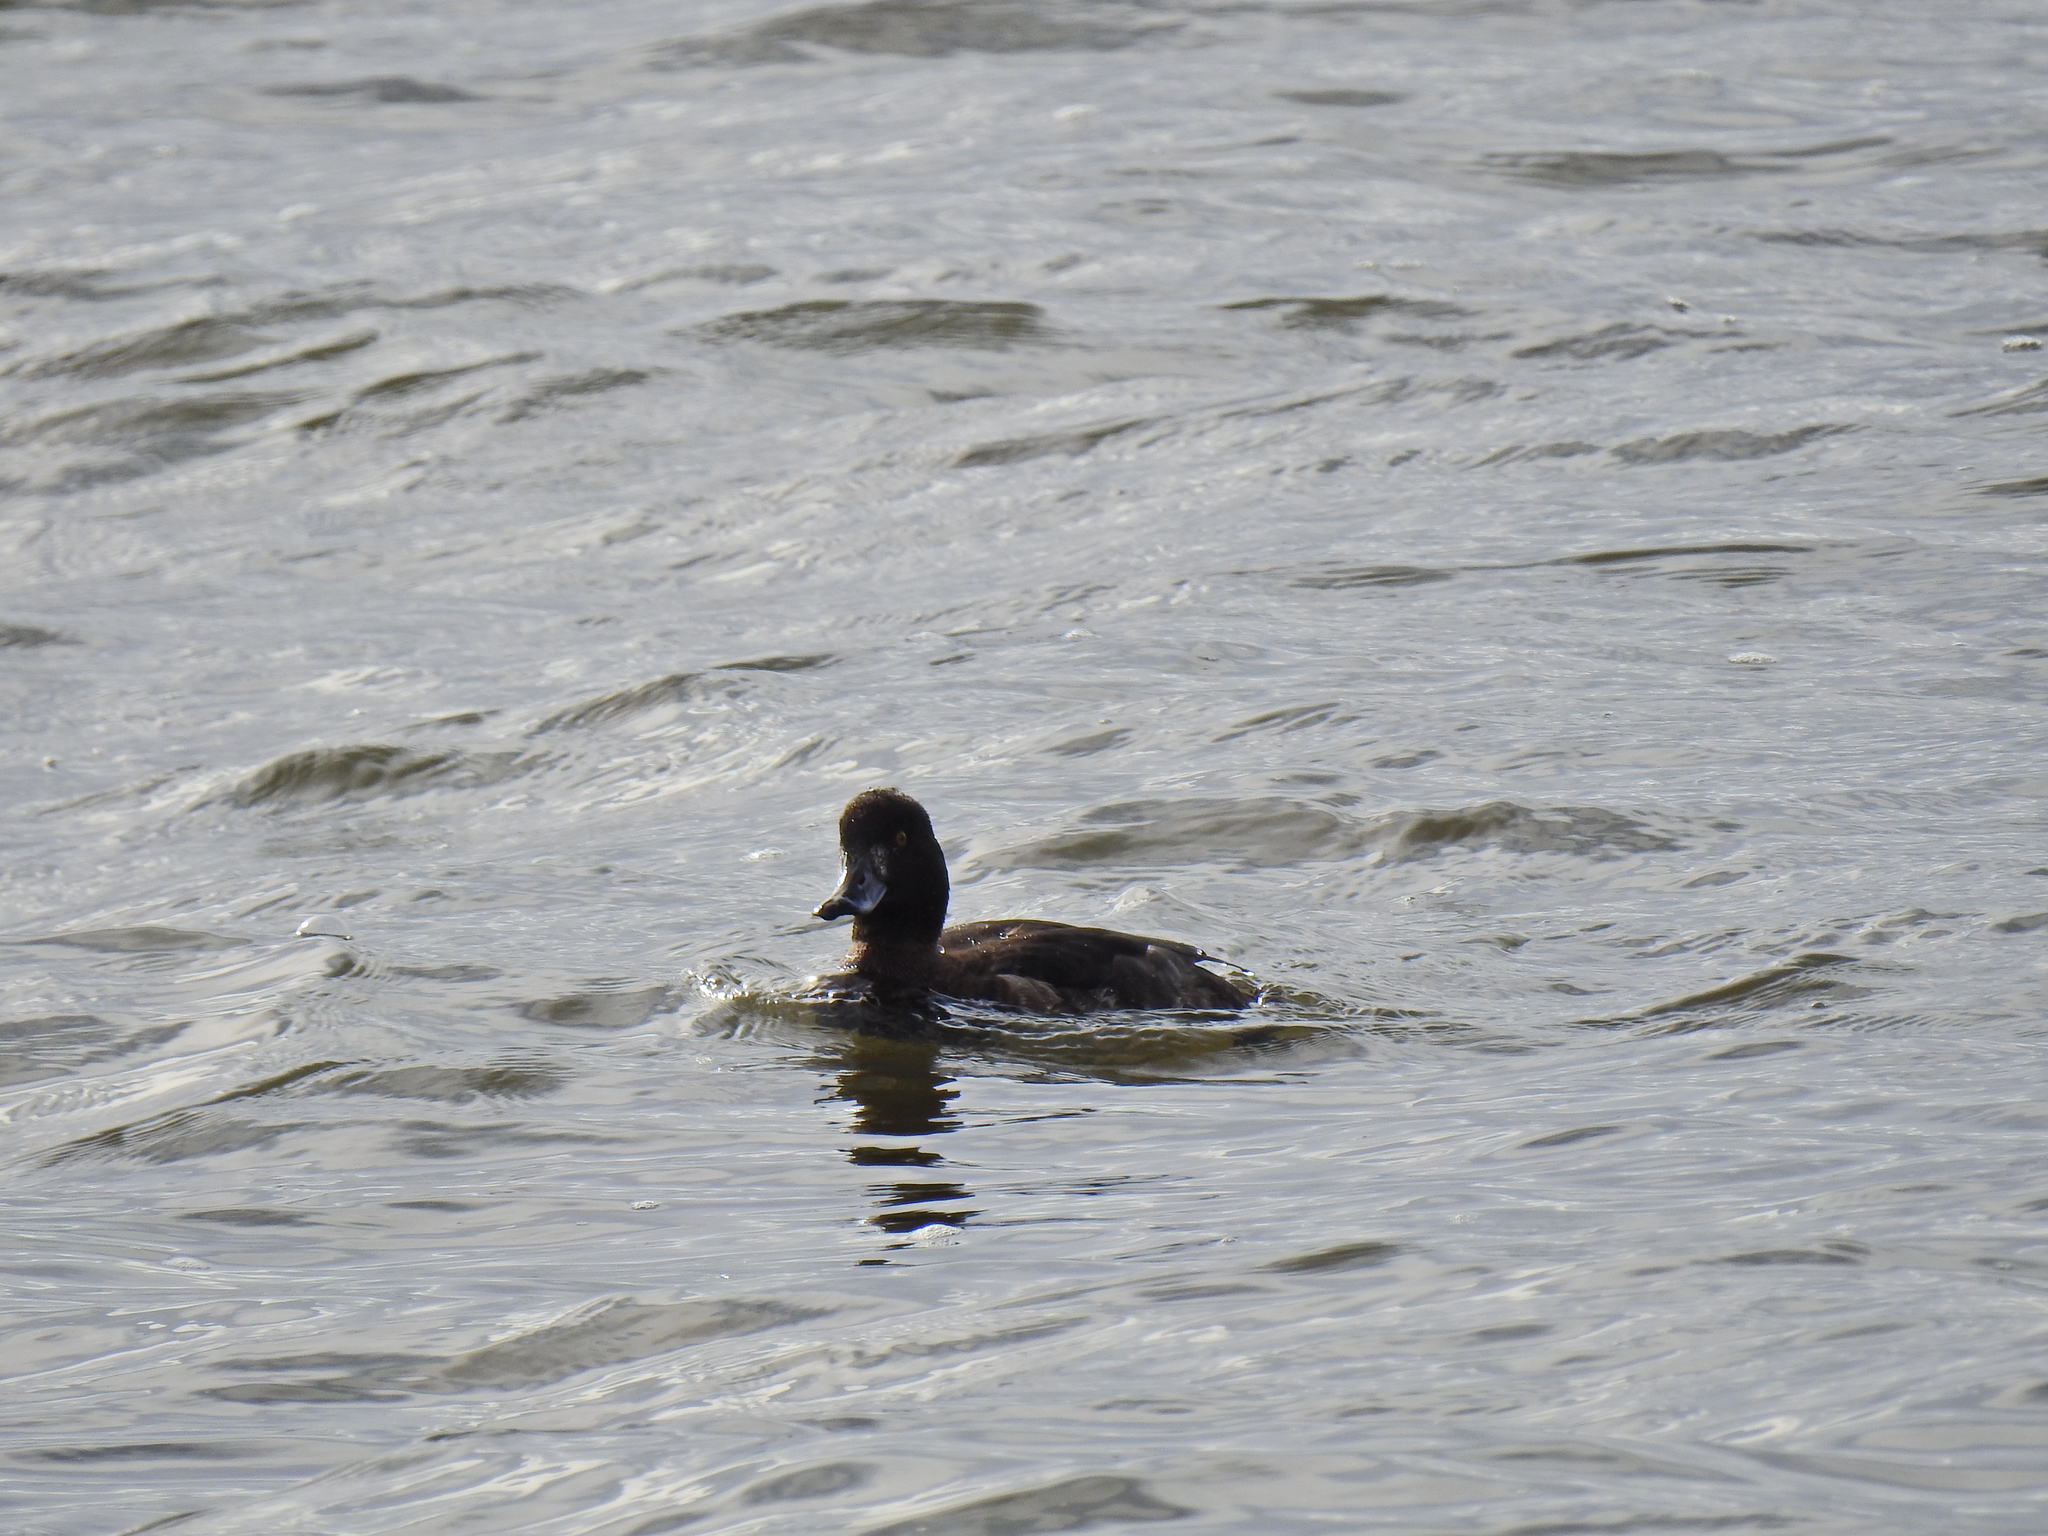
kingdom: Animalia
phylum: Chordata
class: Aves
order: Anseriformes
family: Anatidae
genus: Aythya
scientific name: Aythya fuligula
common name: Tufted duck
